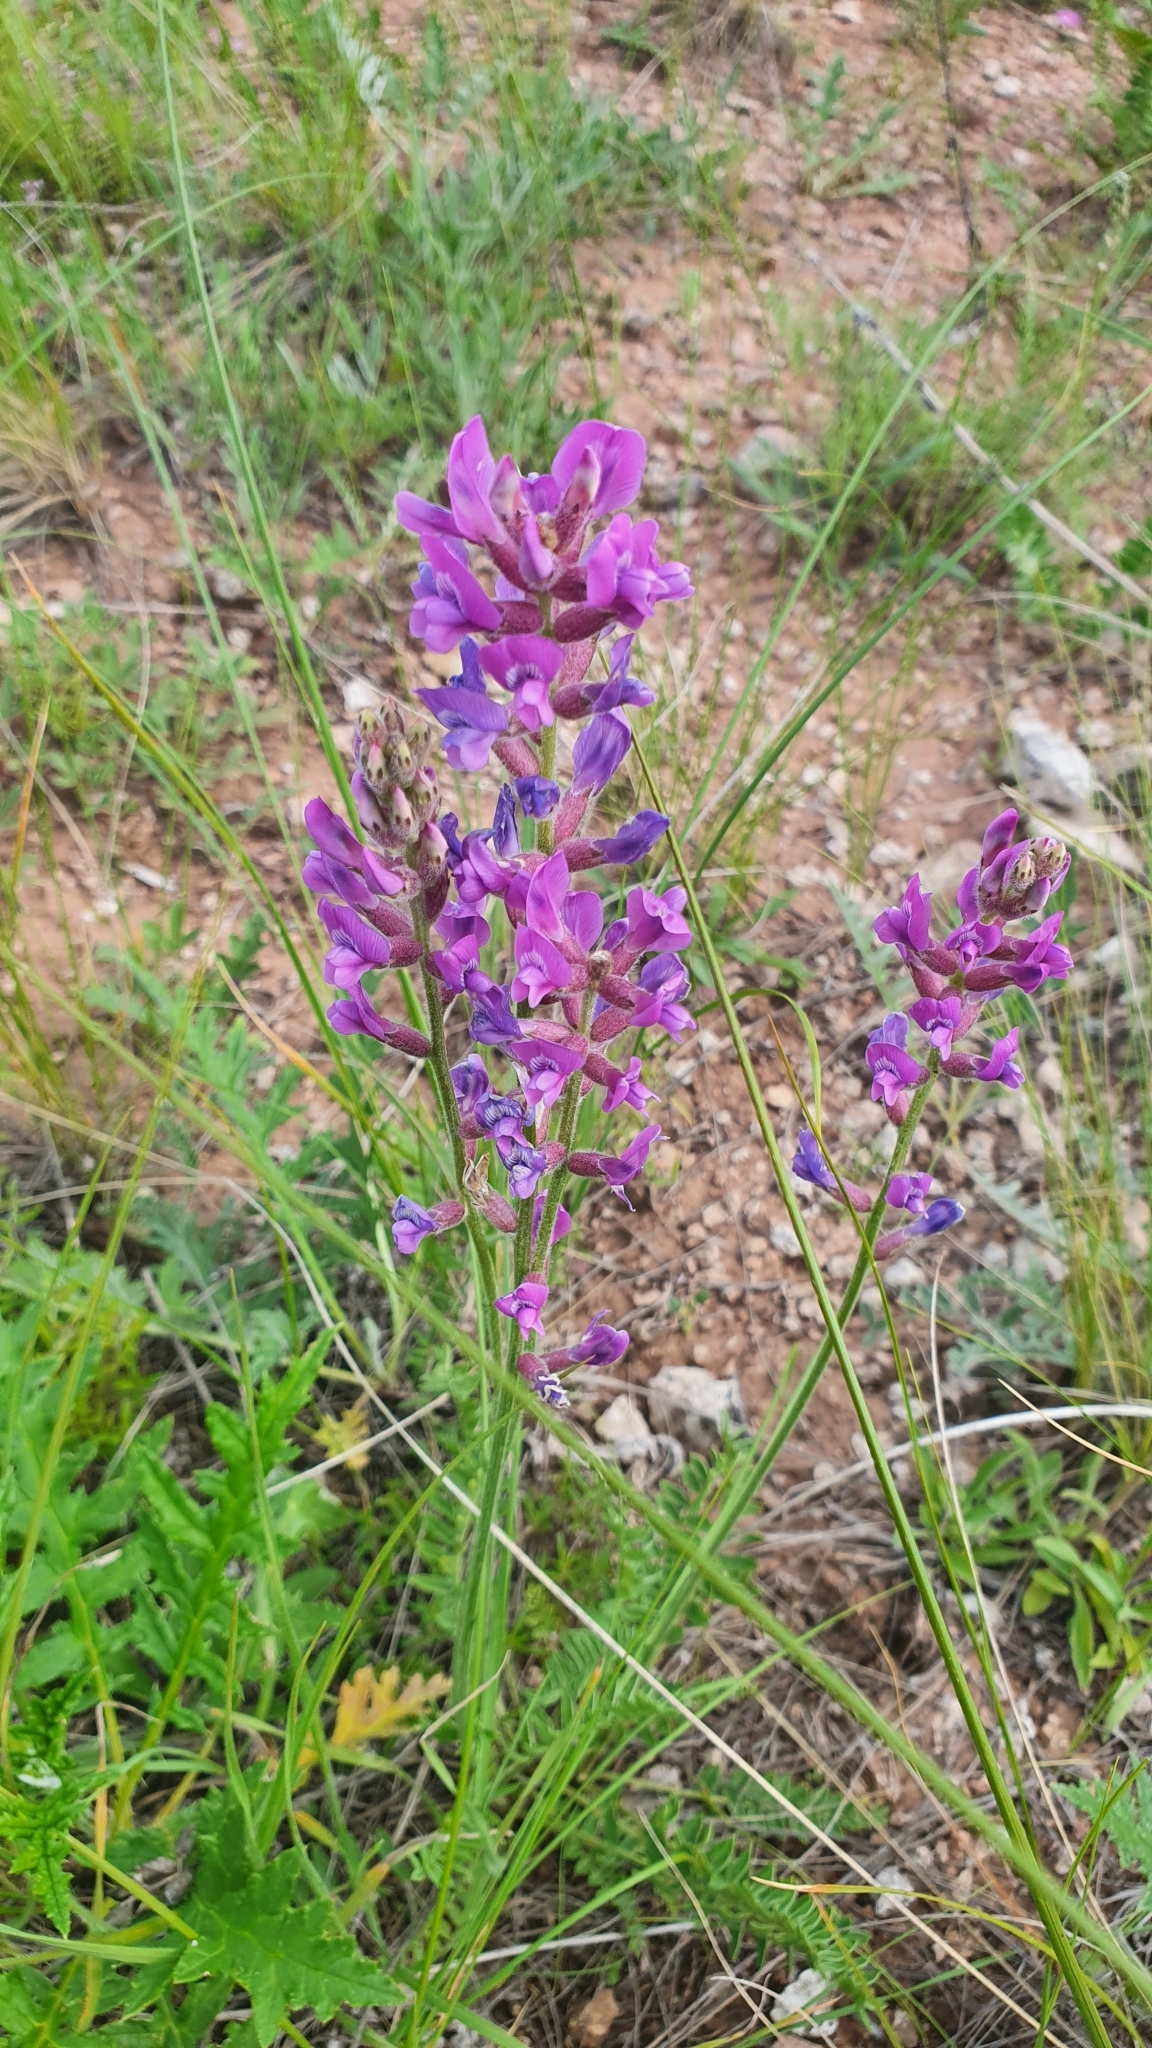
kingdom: Plantae
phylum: Tracheophyta
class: Magnoliopsida
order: Fabales
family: Fabaceae
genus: Oxytropis
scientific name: Oxytropis knjazevii
